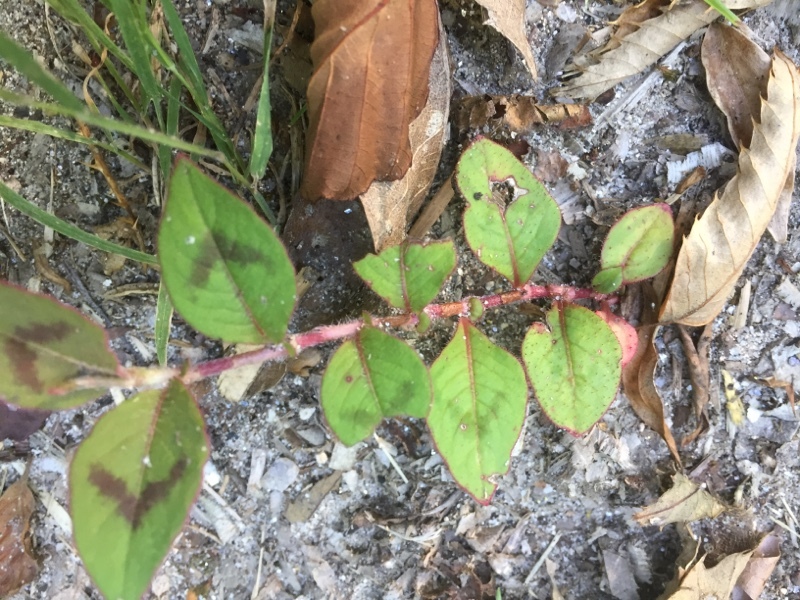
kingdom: Plantae
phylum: Tracheophyta
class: Magnoliopsida
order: Caryophyllales
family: Polygonaceae
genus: Persicaria
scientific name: Persicaria capitata
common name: Pinkhead smartweed
